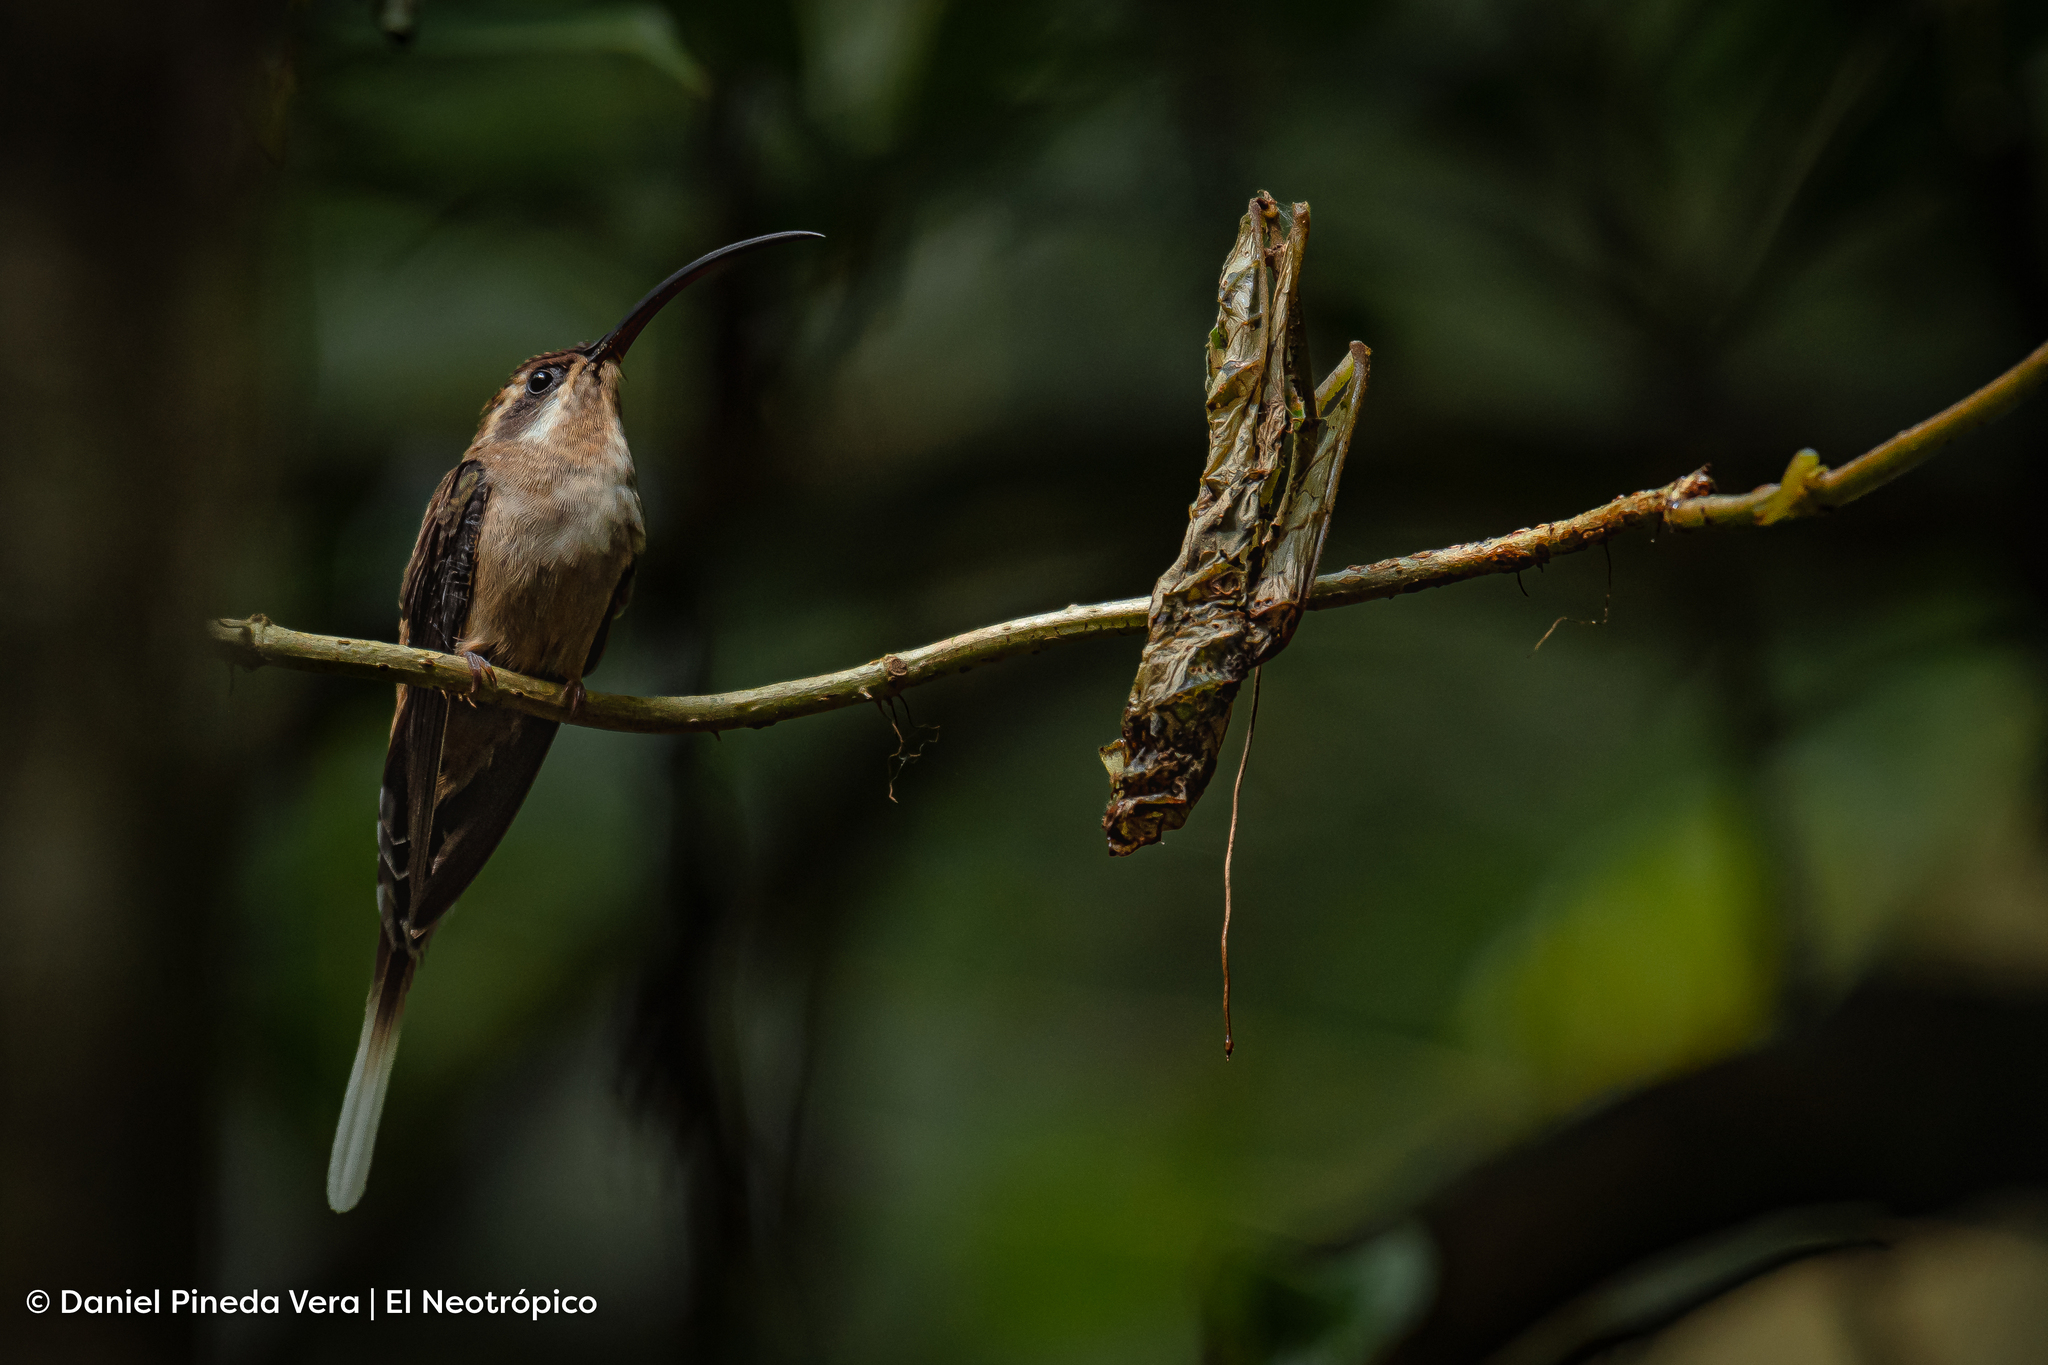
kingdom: Animalia
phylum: Chordata
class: Aves
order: Apodiformes
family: Trochilidae
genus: Phaethornis
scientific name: Phaethornis longirostris
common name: Long-billed hermit
